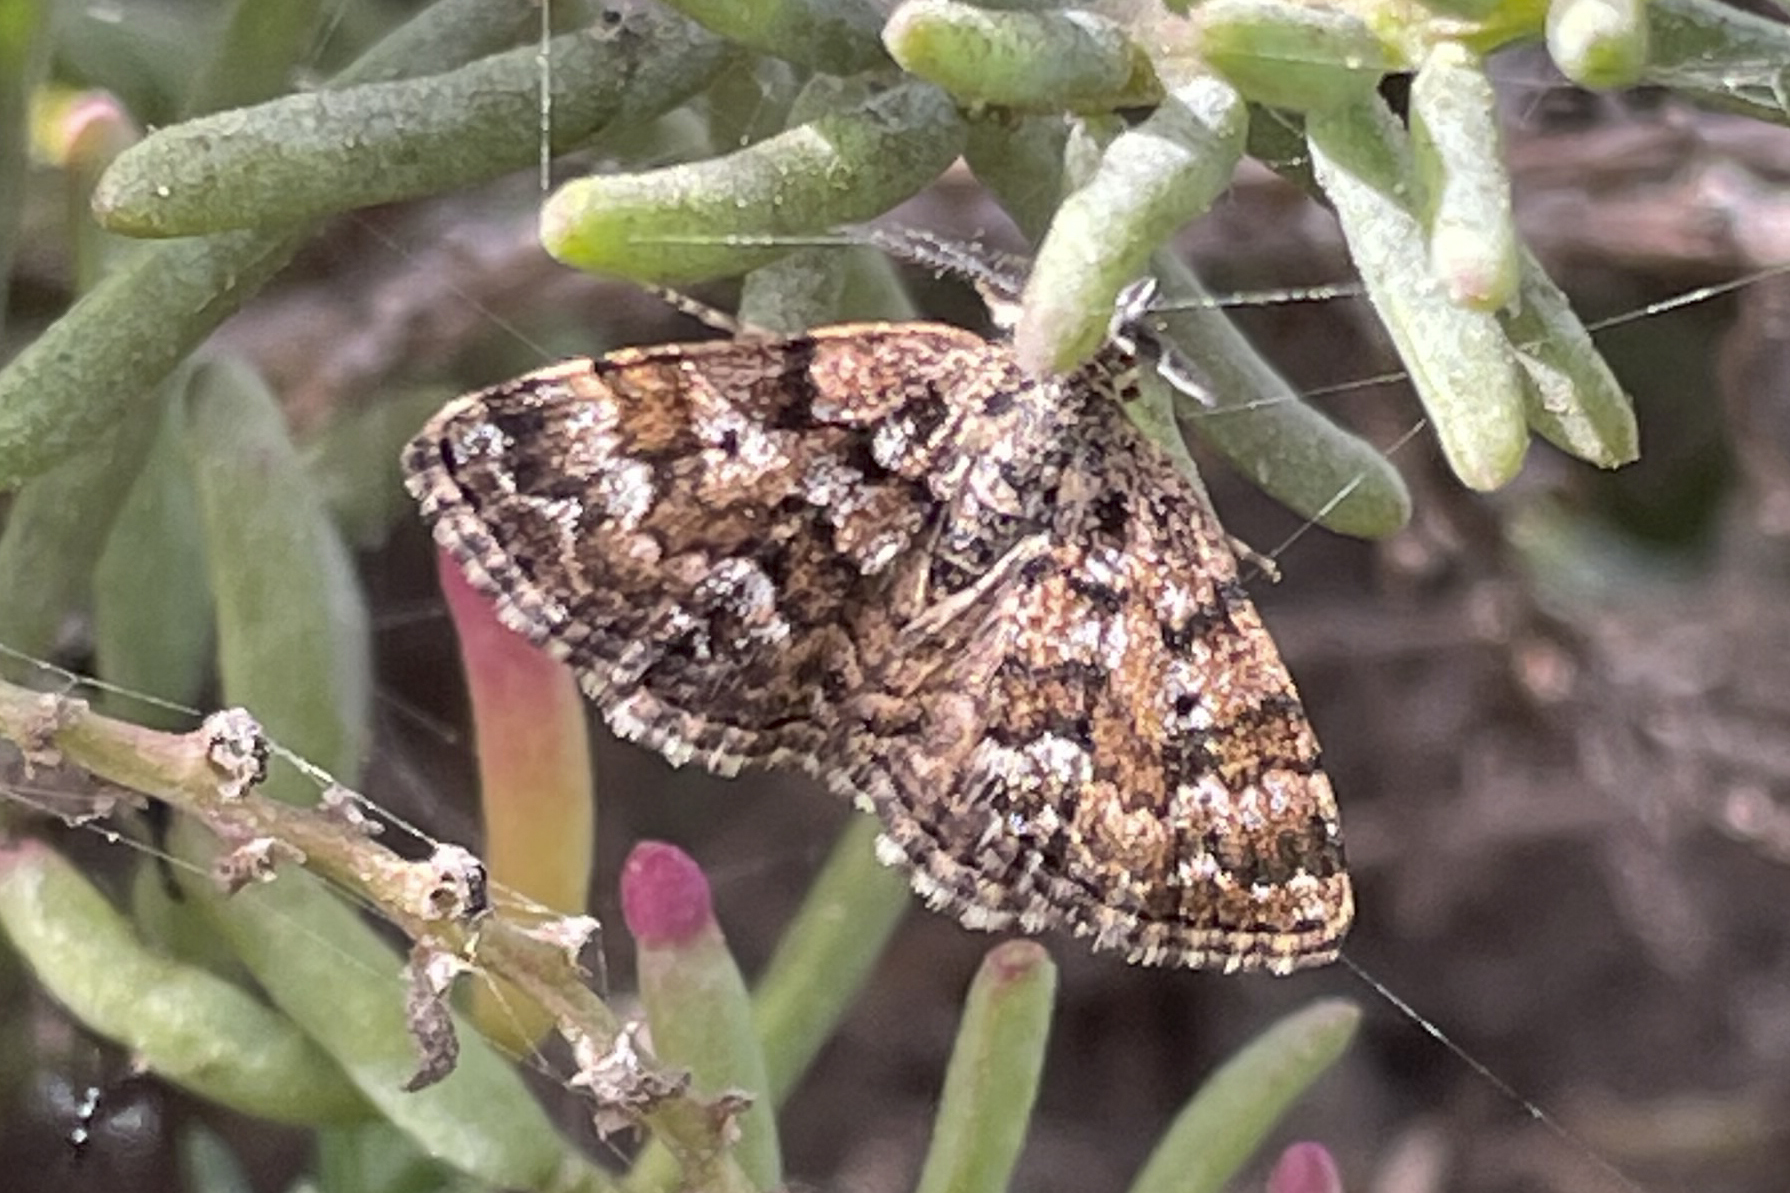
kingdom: Animalia
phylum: Arthropoda
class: Insecta
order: Lepidoptera
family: Geometridae
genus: Oar
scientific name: Oar pratana
